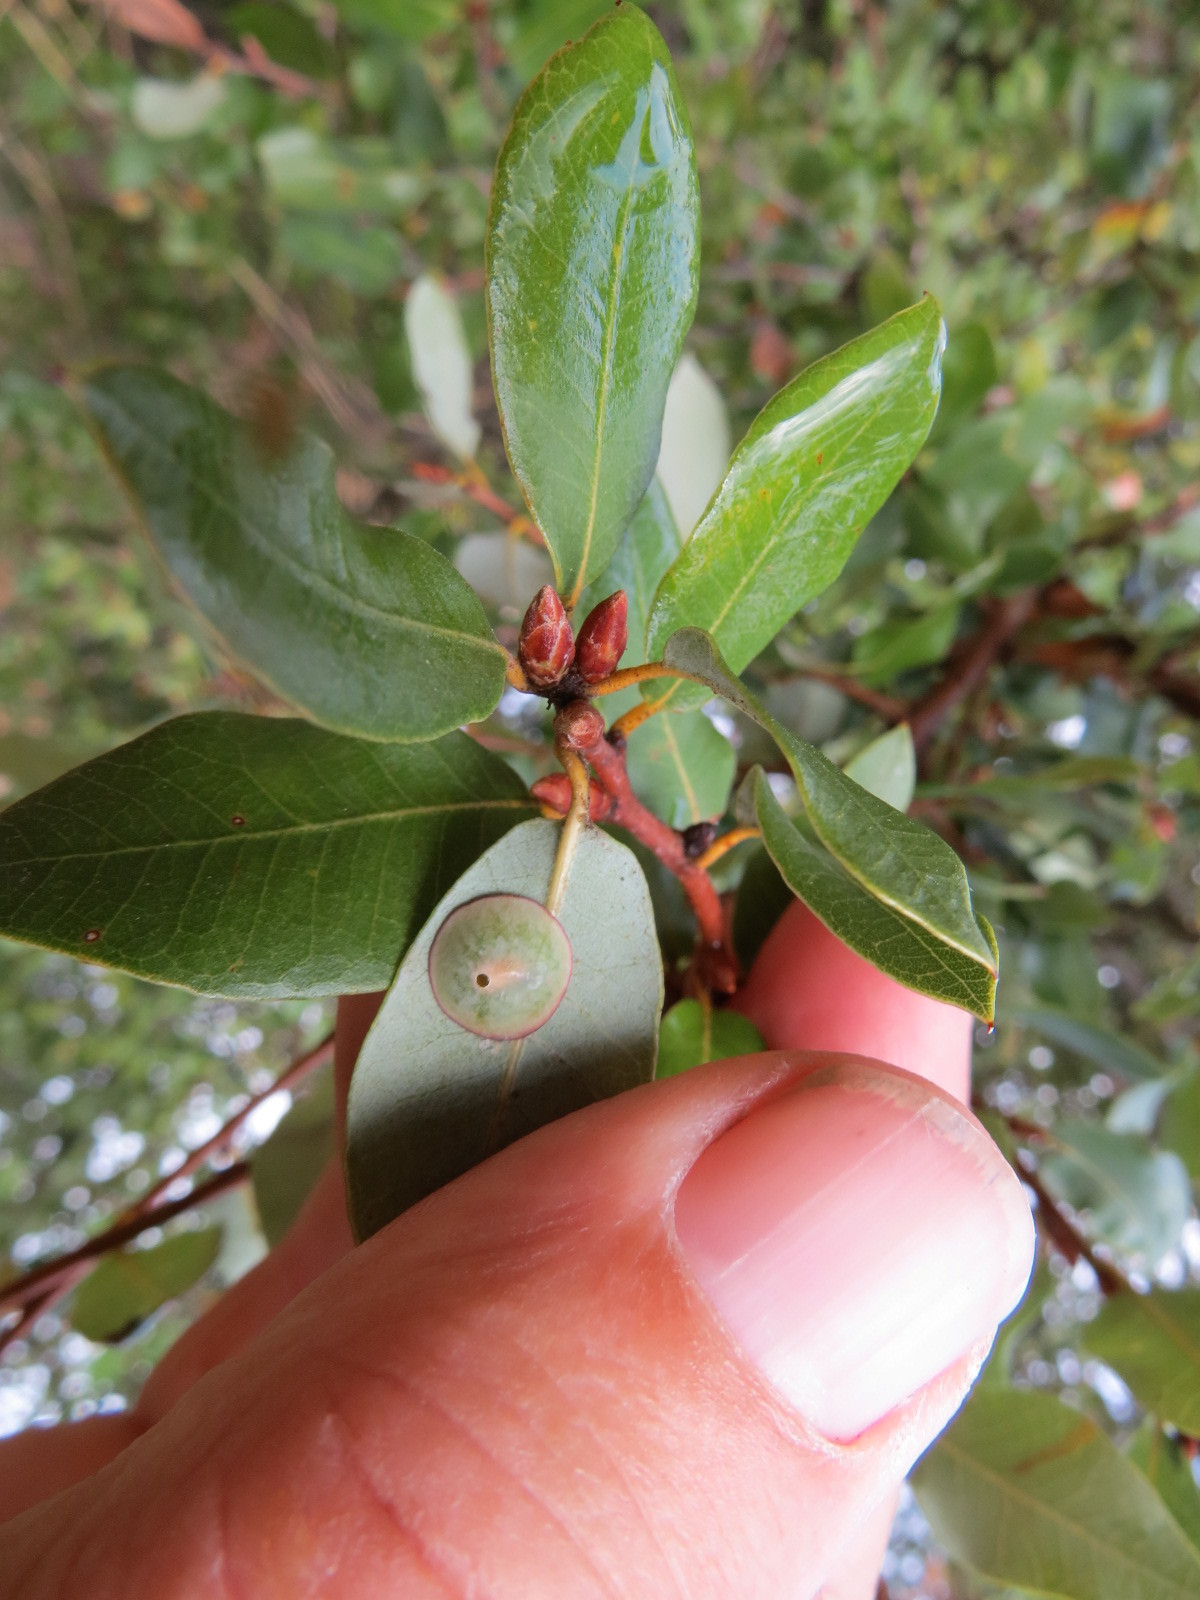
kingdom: Animalia
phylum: Arthropoda
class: Insecta
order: Hymenoptera
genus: Paracraspis
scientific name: Paracraspis
